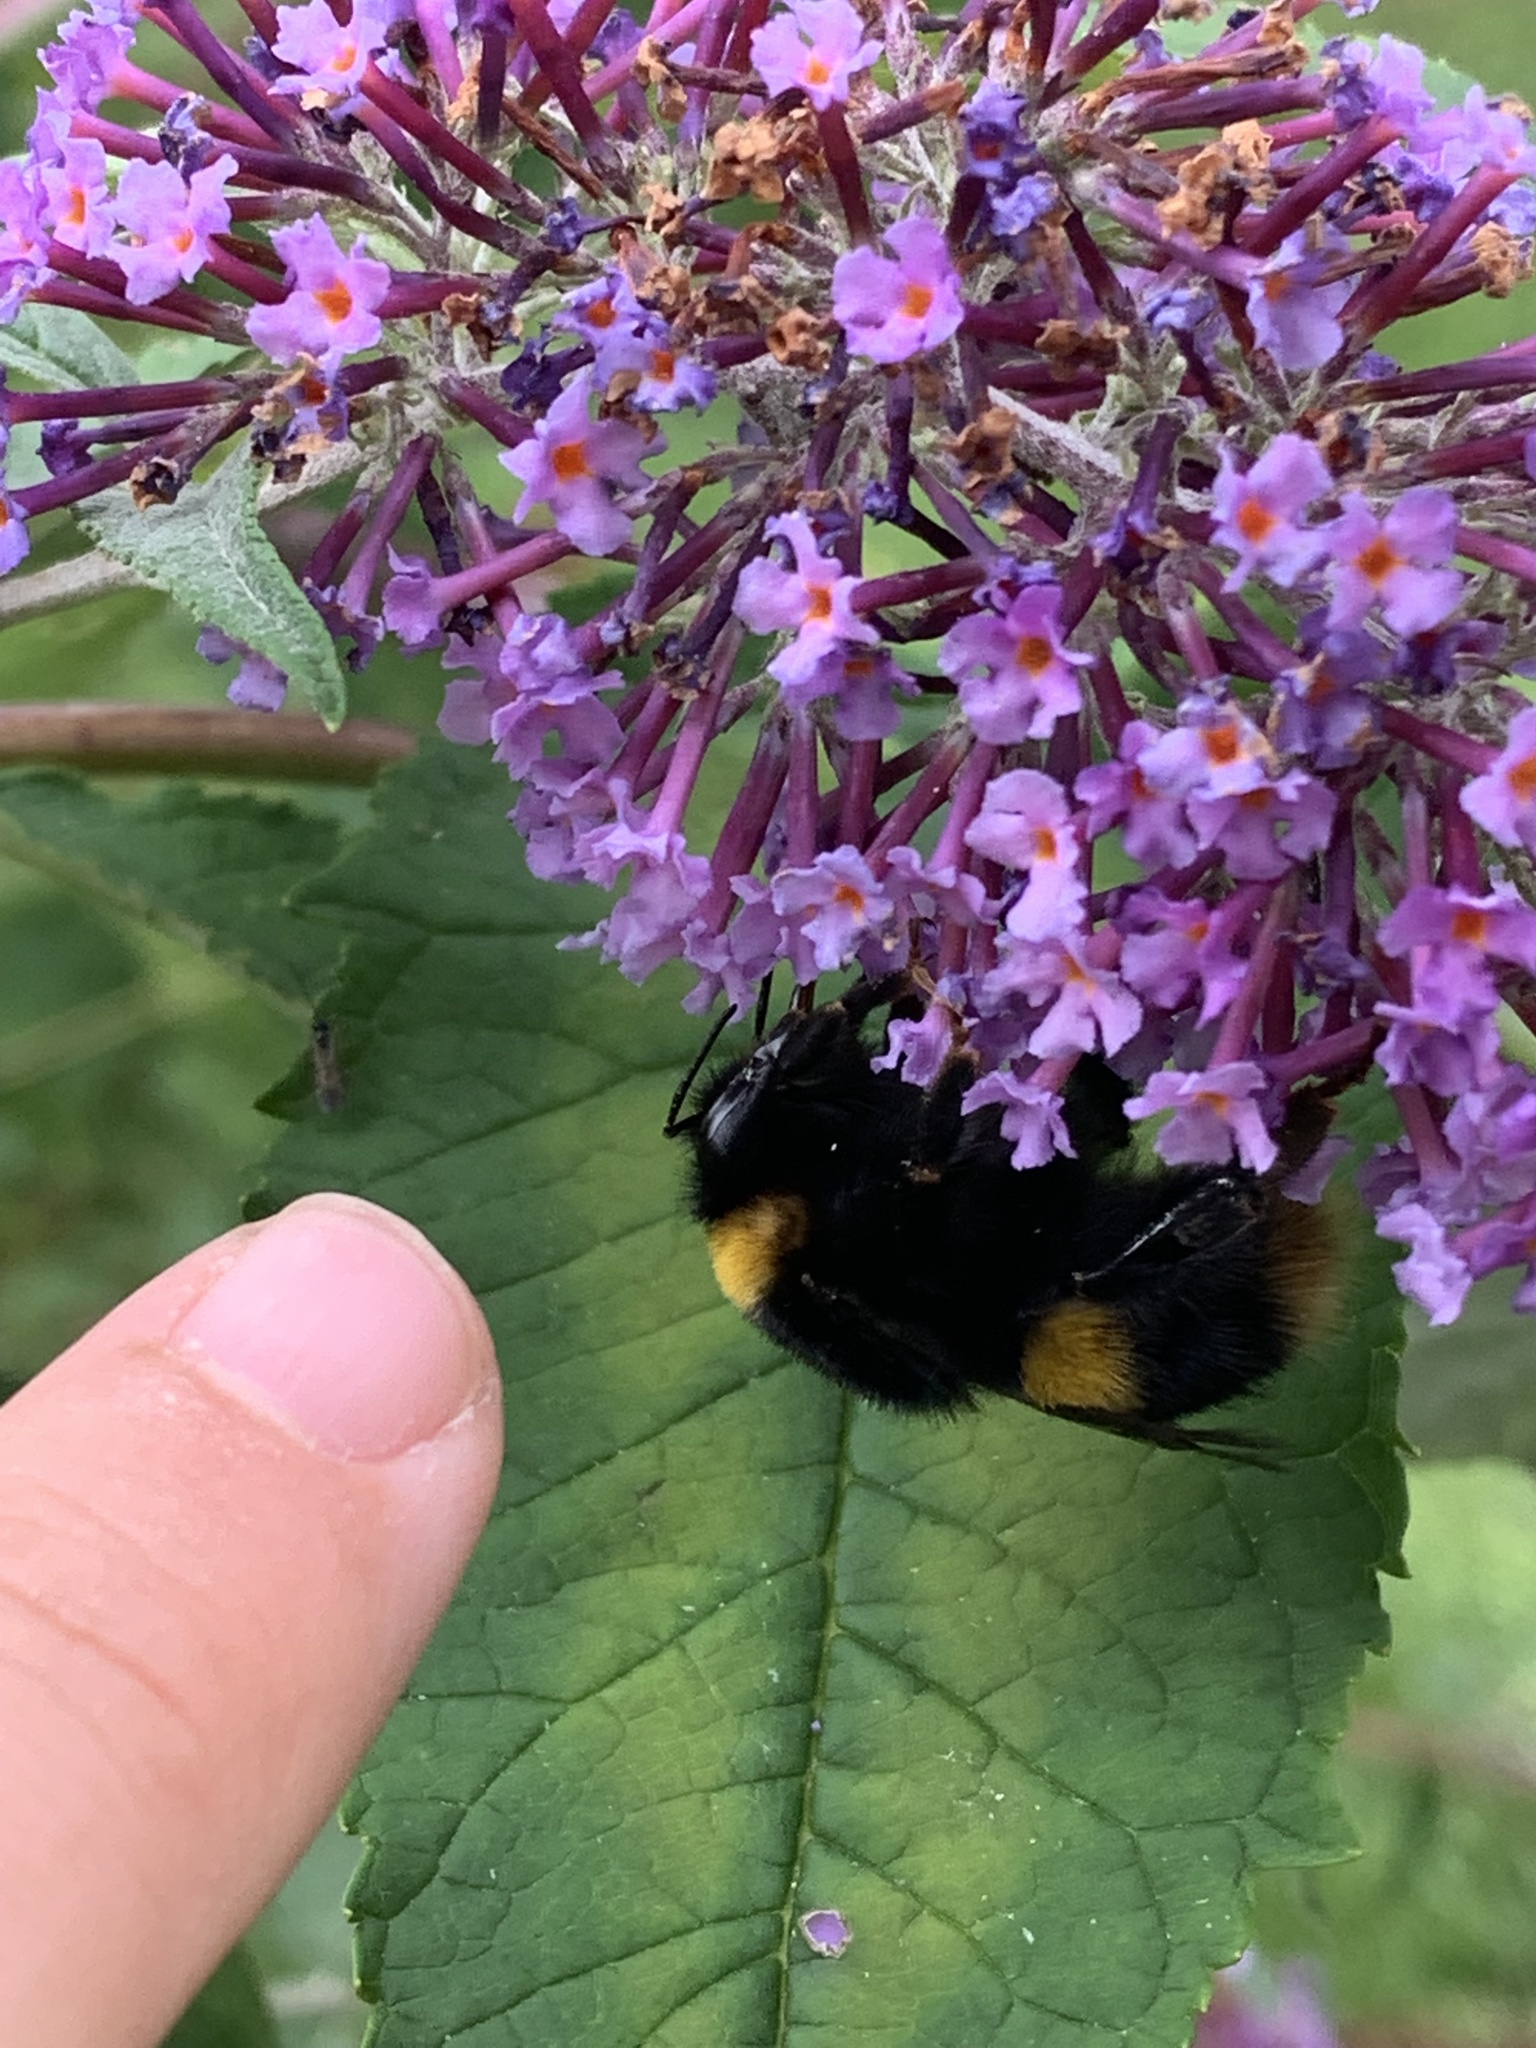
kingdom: Animalia
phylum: Arthropoda
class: Insecta
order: Hymenoptera
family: Apidae
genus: Bombus
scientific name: Bombus terrestris
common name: Buff-tailed bumblebee
